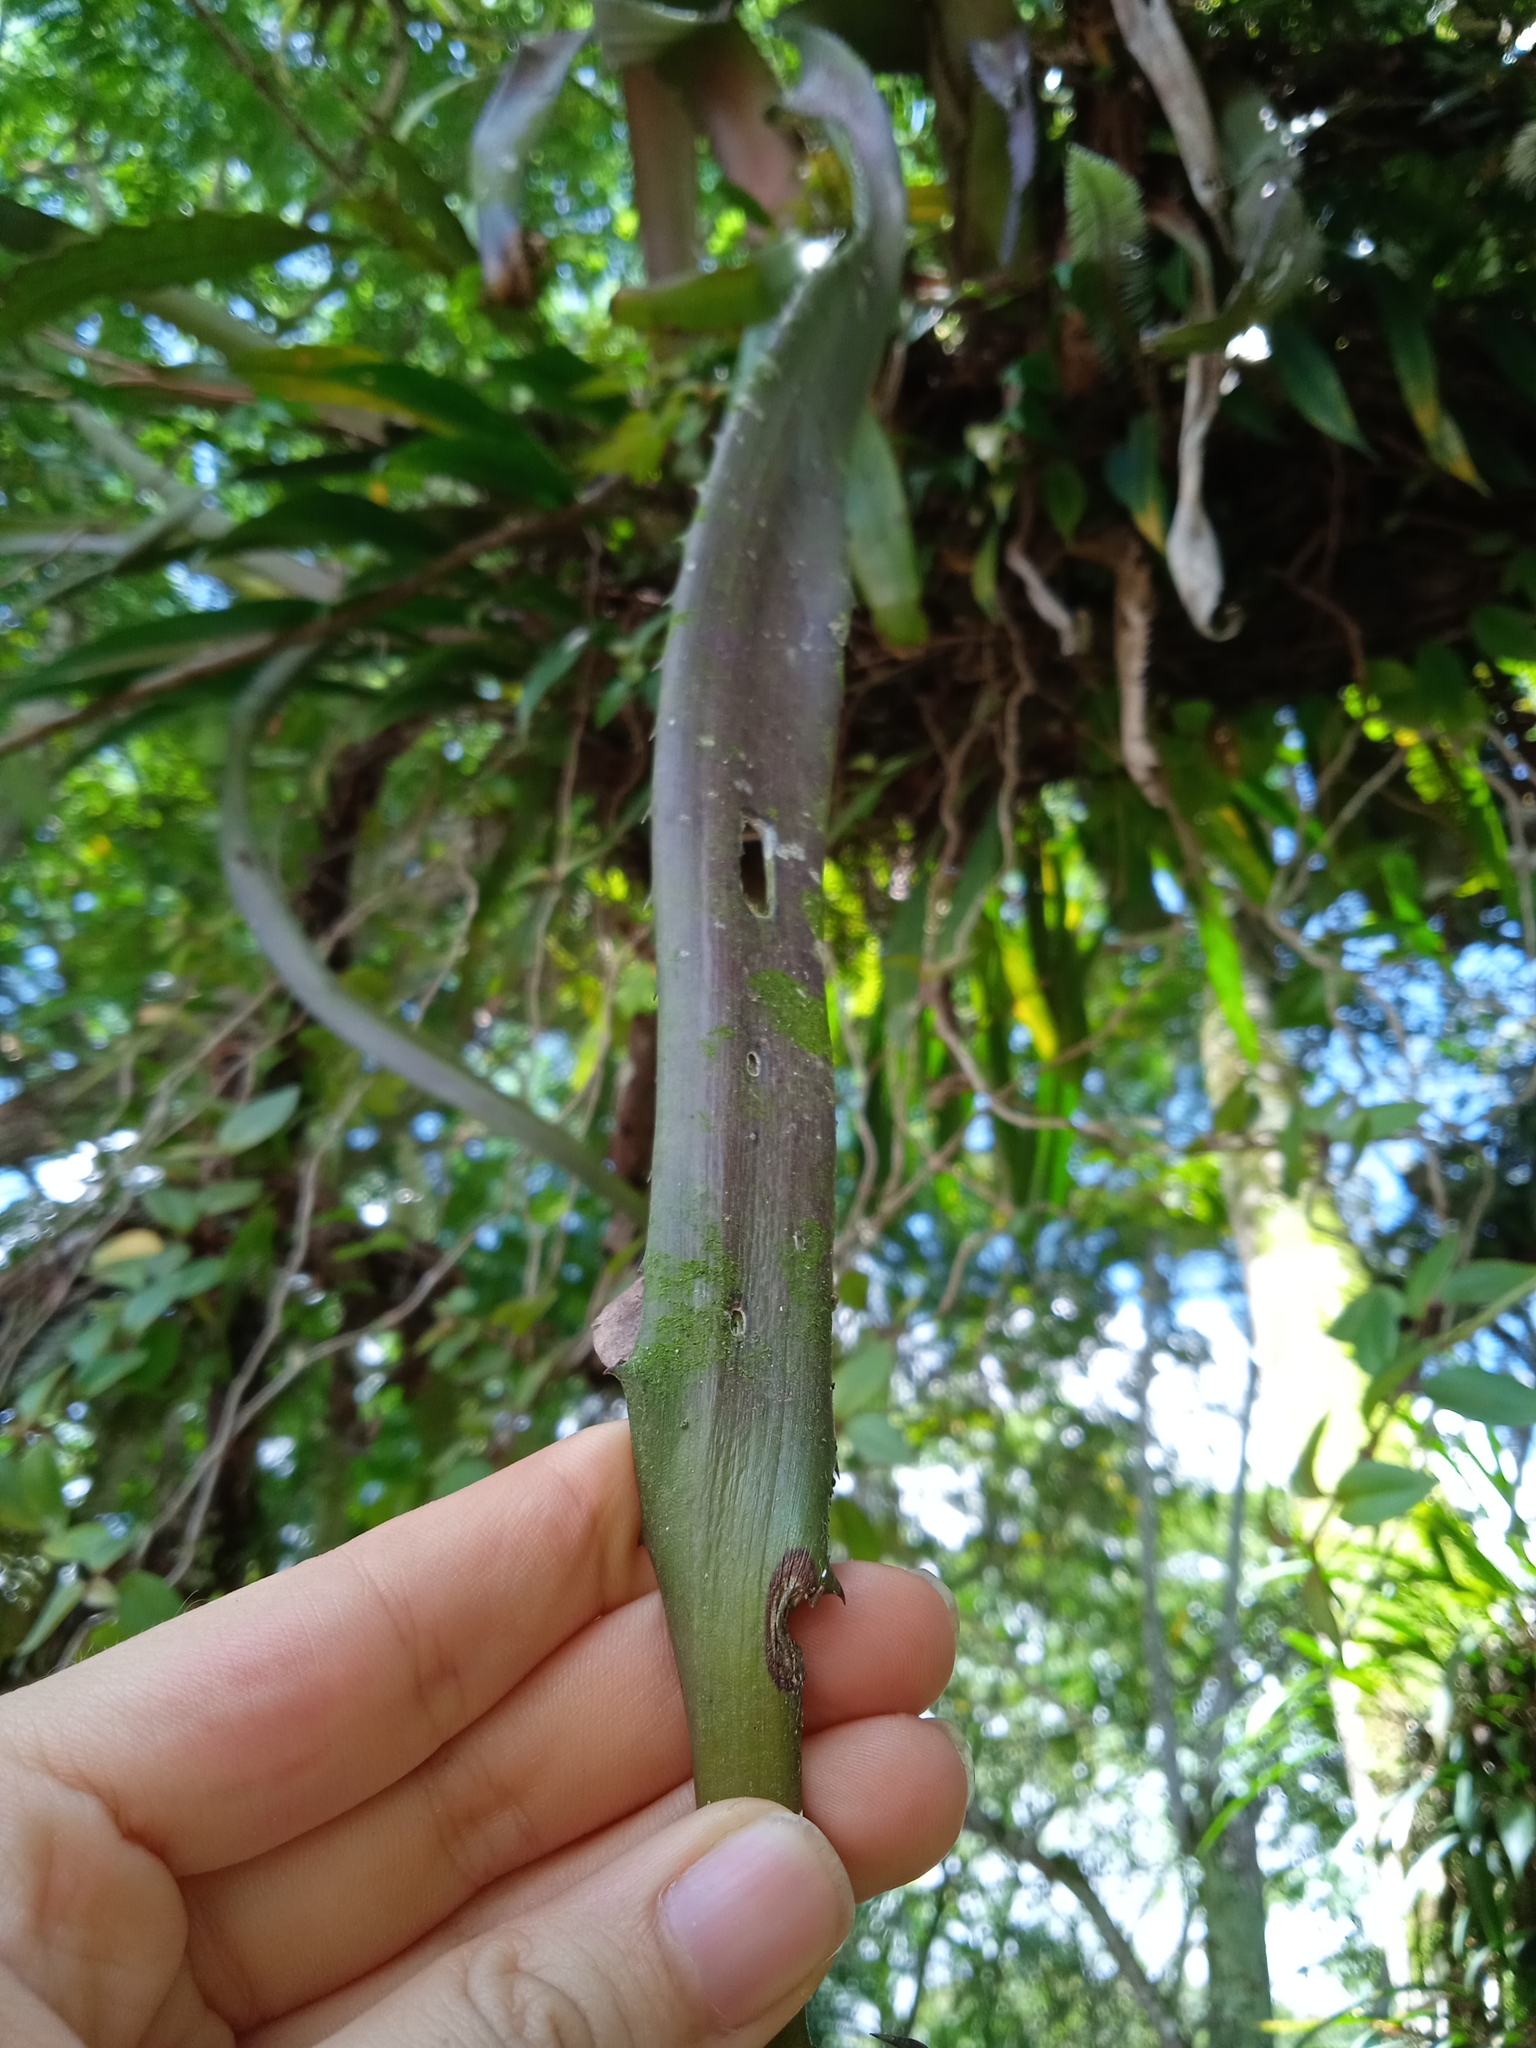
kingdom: Plantae
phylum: Tracheophyta
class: Liliopsida
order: Poales
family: Bromeliaceae
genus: Aechmea
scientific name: Aechmea tocantina
